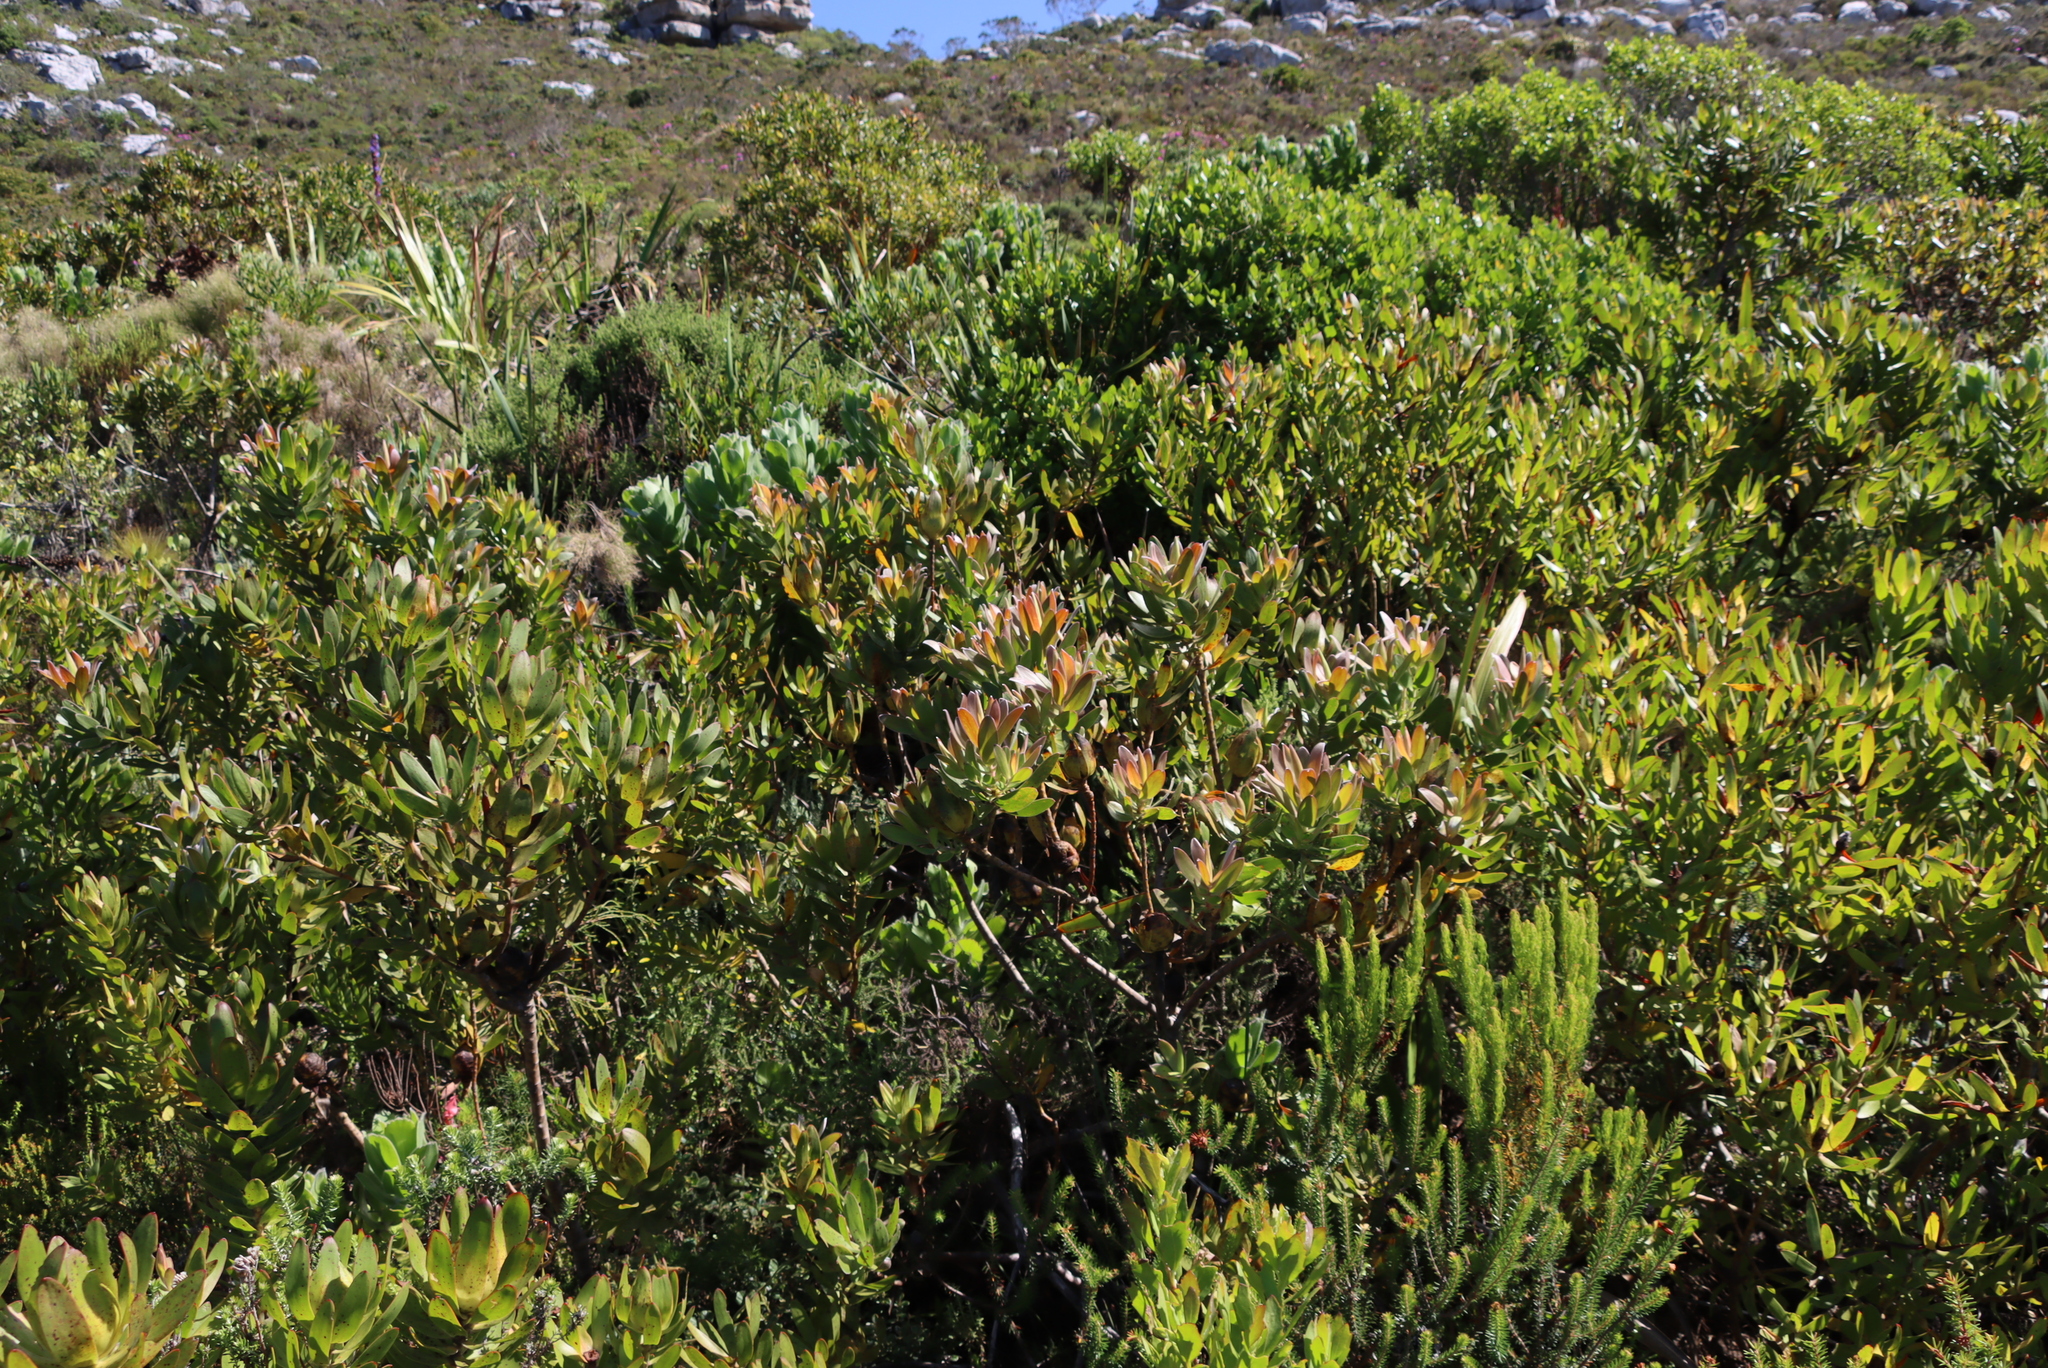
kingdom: Plantae
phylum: Tracheophyta
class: Magnoliopsida
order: Proteales
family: Proteaceae
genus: Leucadendron
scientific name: Leucadendron laureolum
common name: Golden sunshinebush
